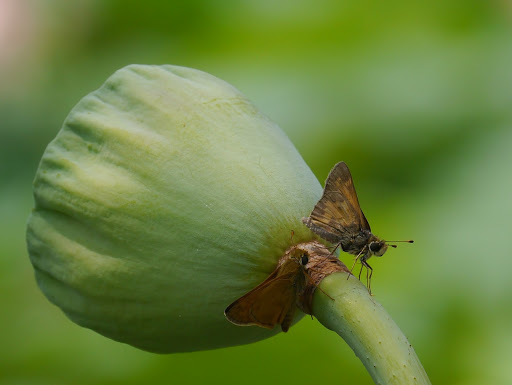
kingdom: Animalia
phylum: Arthropoda
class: Insecta
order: Lepidoptera
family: Hesperiidae
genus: Atalopedes
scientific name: Atalopedes
